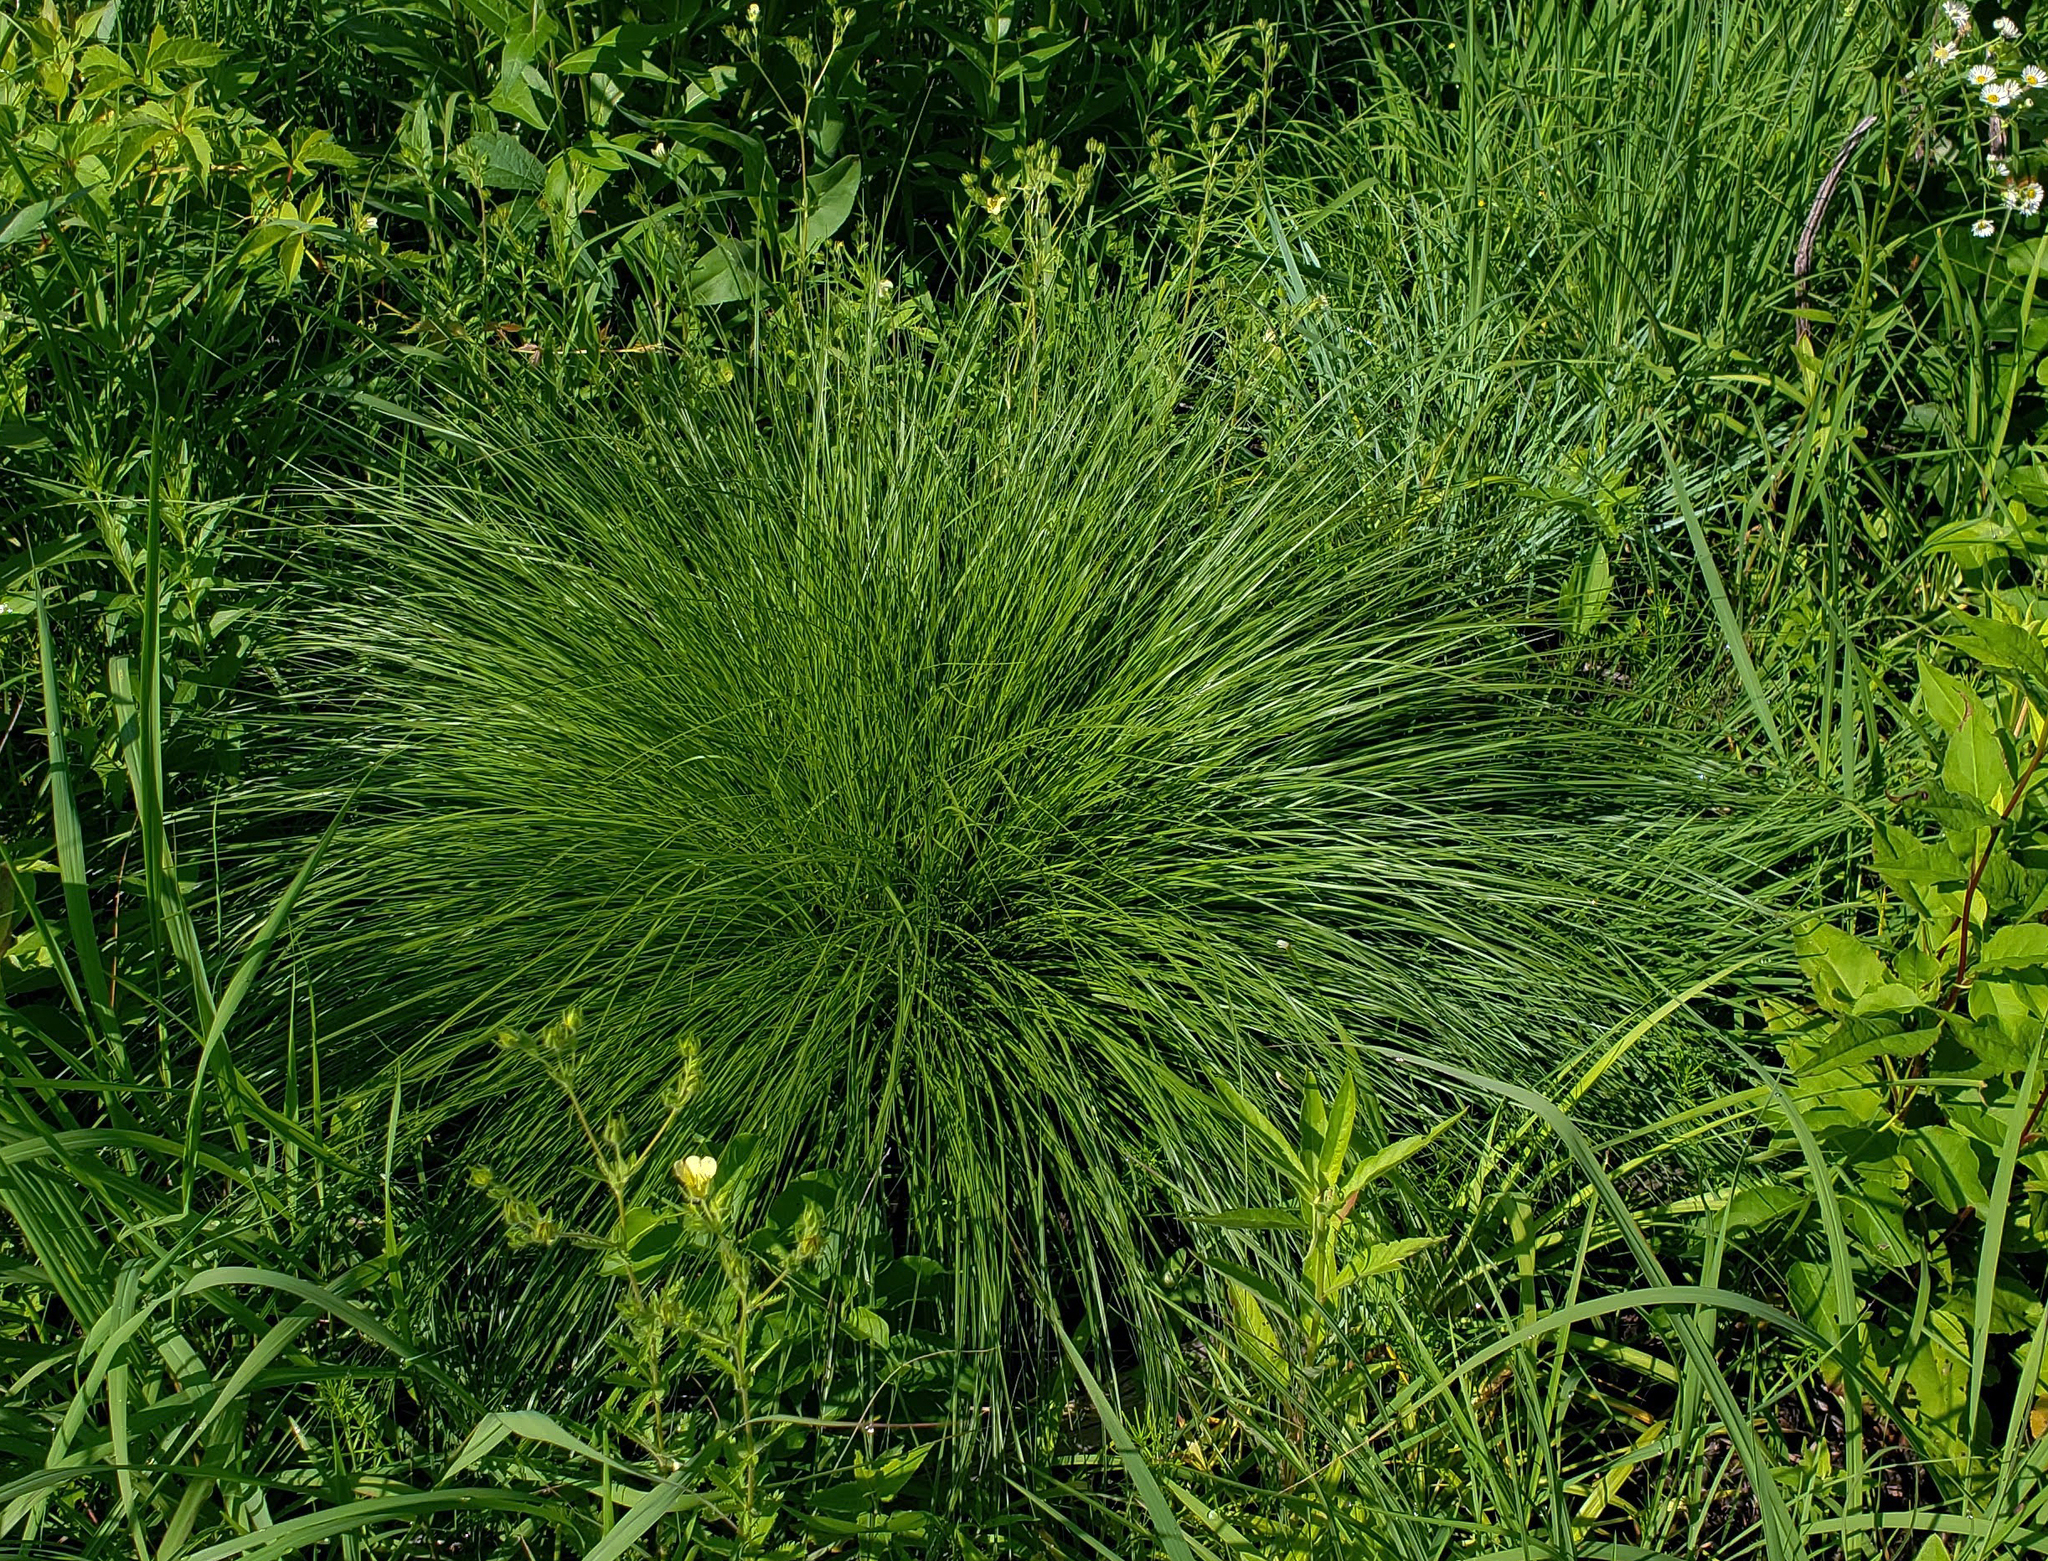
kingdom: Plantae
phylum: Tracheophyta
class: Liliopsida
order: Poales
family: Poaceae
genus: Sporobolus
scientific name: Sporobolus heterolepis
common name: Prairie dropseed
